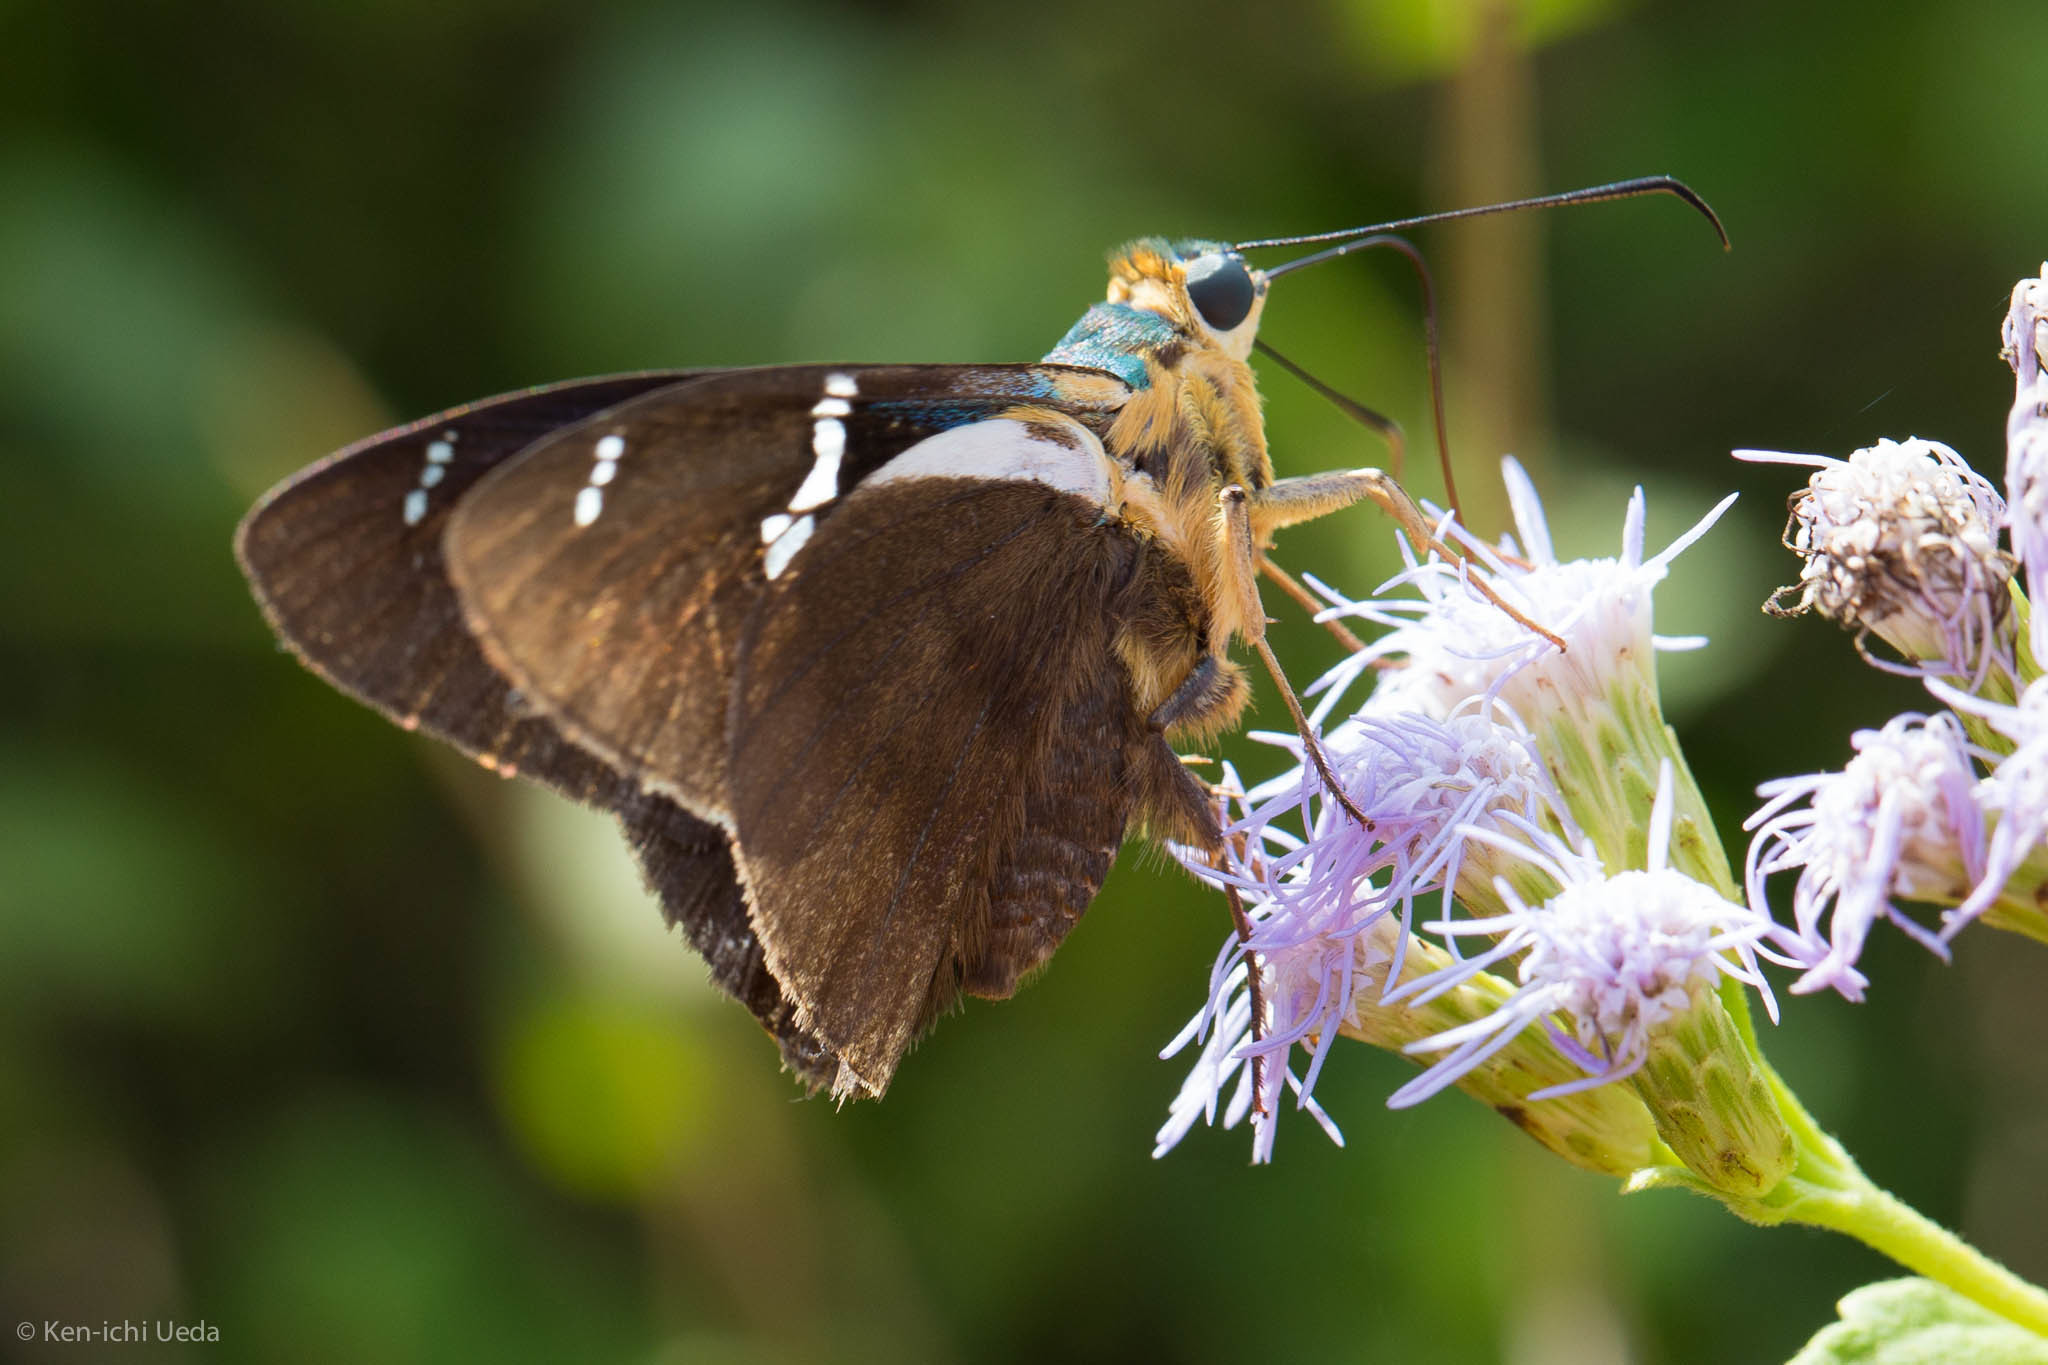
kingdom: Animalia
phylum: Arthropoda
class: Insecta
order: Lepidoptera
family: Hesperiidae
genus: Astraptes
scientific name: Astraptes fulgerator
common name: Two-barred flasher
